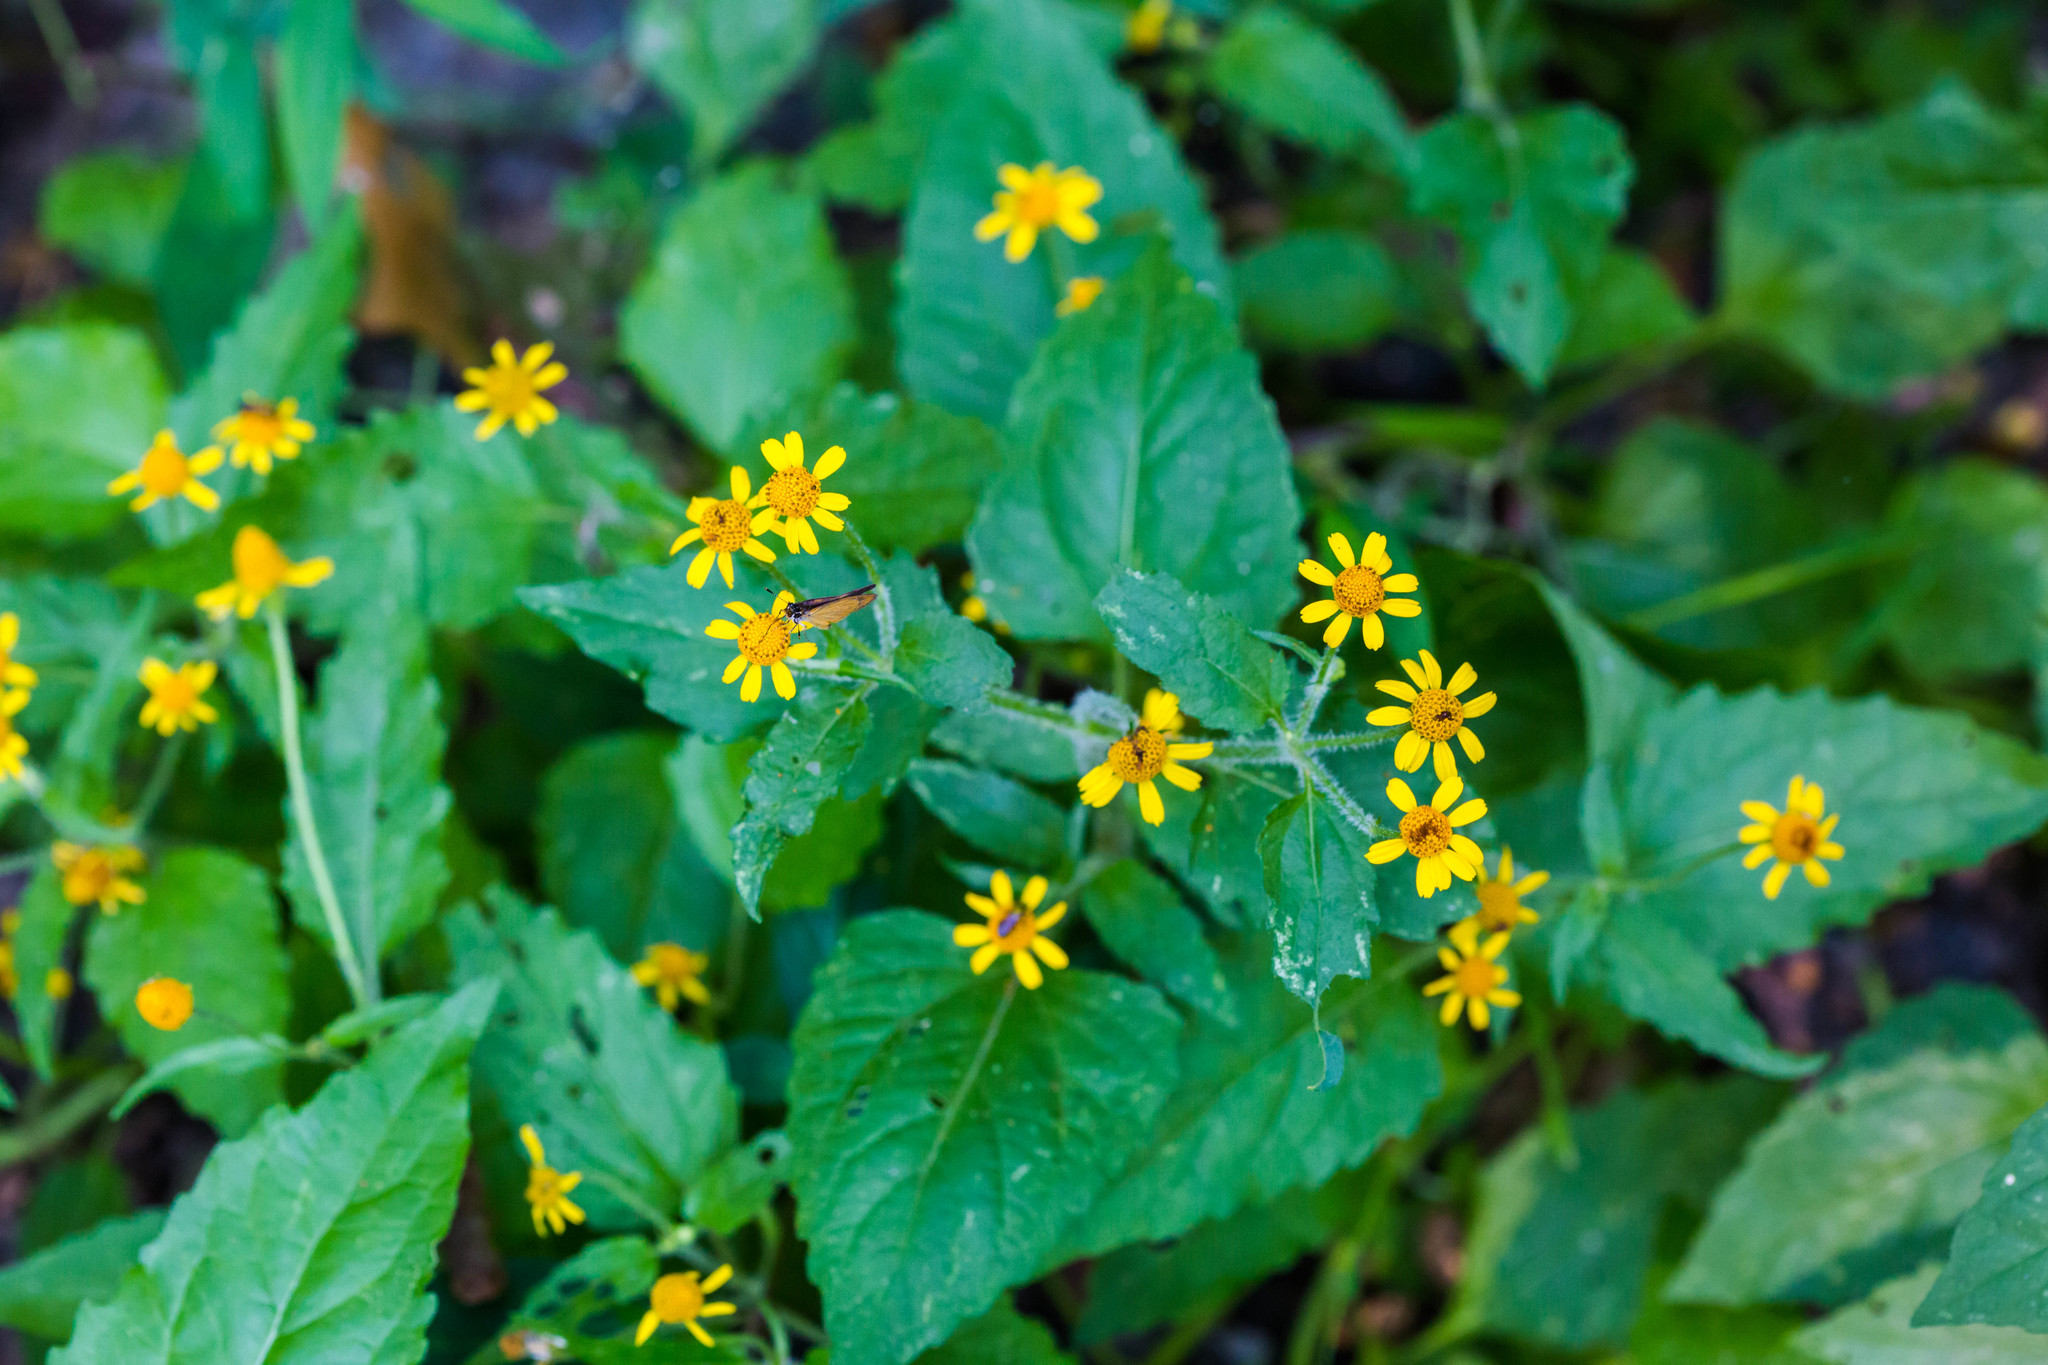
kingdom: Plantae
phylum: Tracheophyta
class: Magnoliopsida
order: Asterales
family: Asteraceae
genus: Acmella
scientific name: Acmella repens
